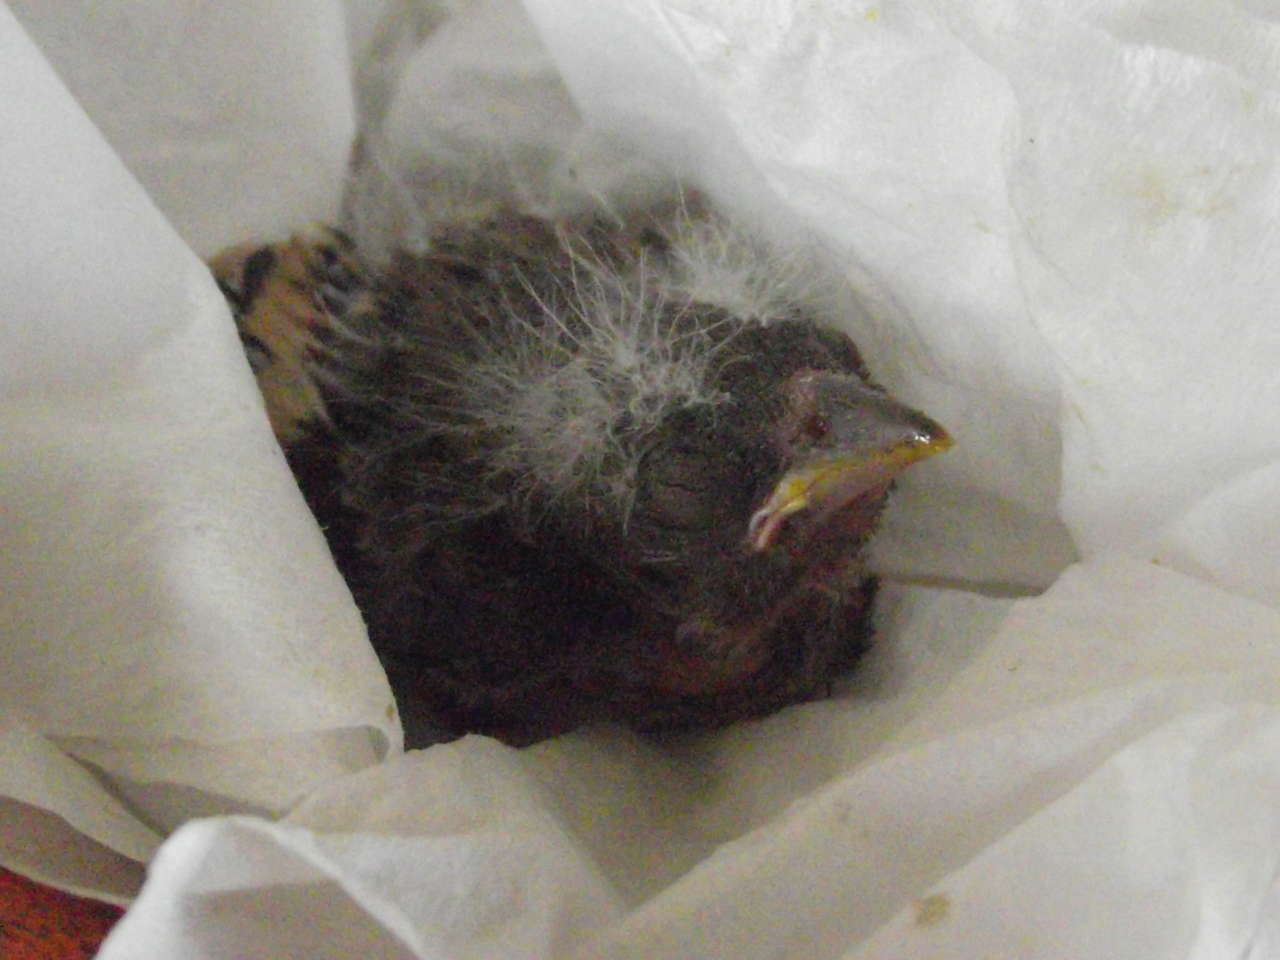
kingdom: Animalia
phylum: Chordata
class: Aves
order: Passeriformes
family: Fringillidae
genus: Carduelis
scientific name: Carduelis carduelis
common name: European goldfinch
